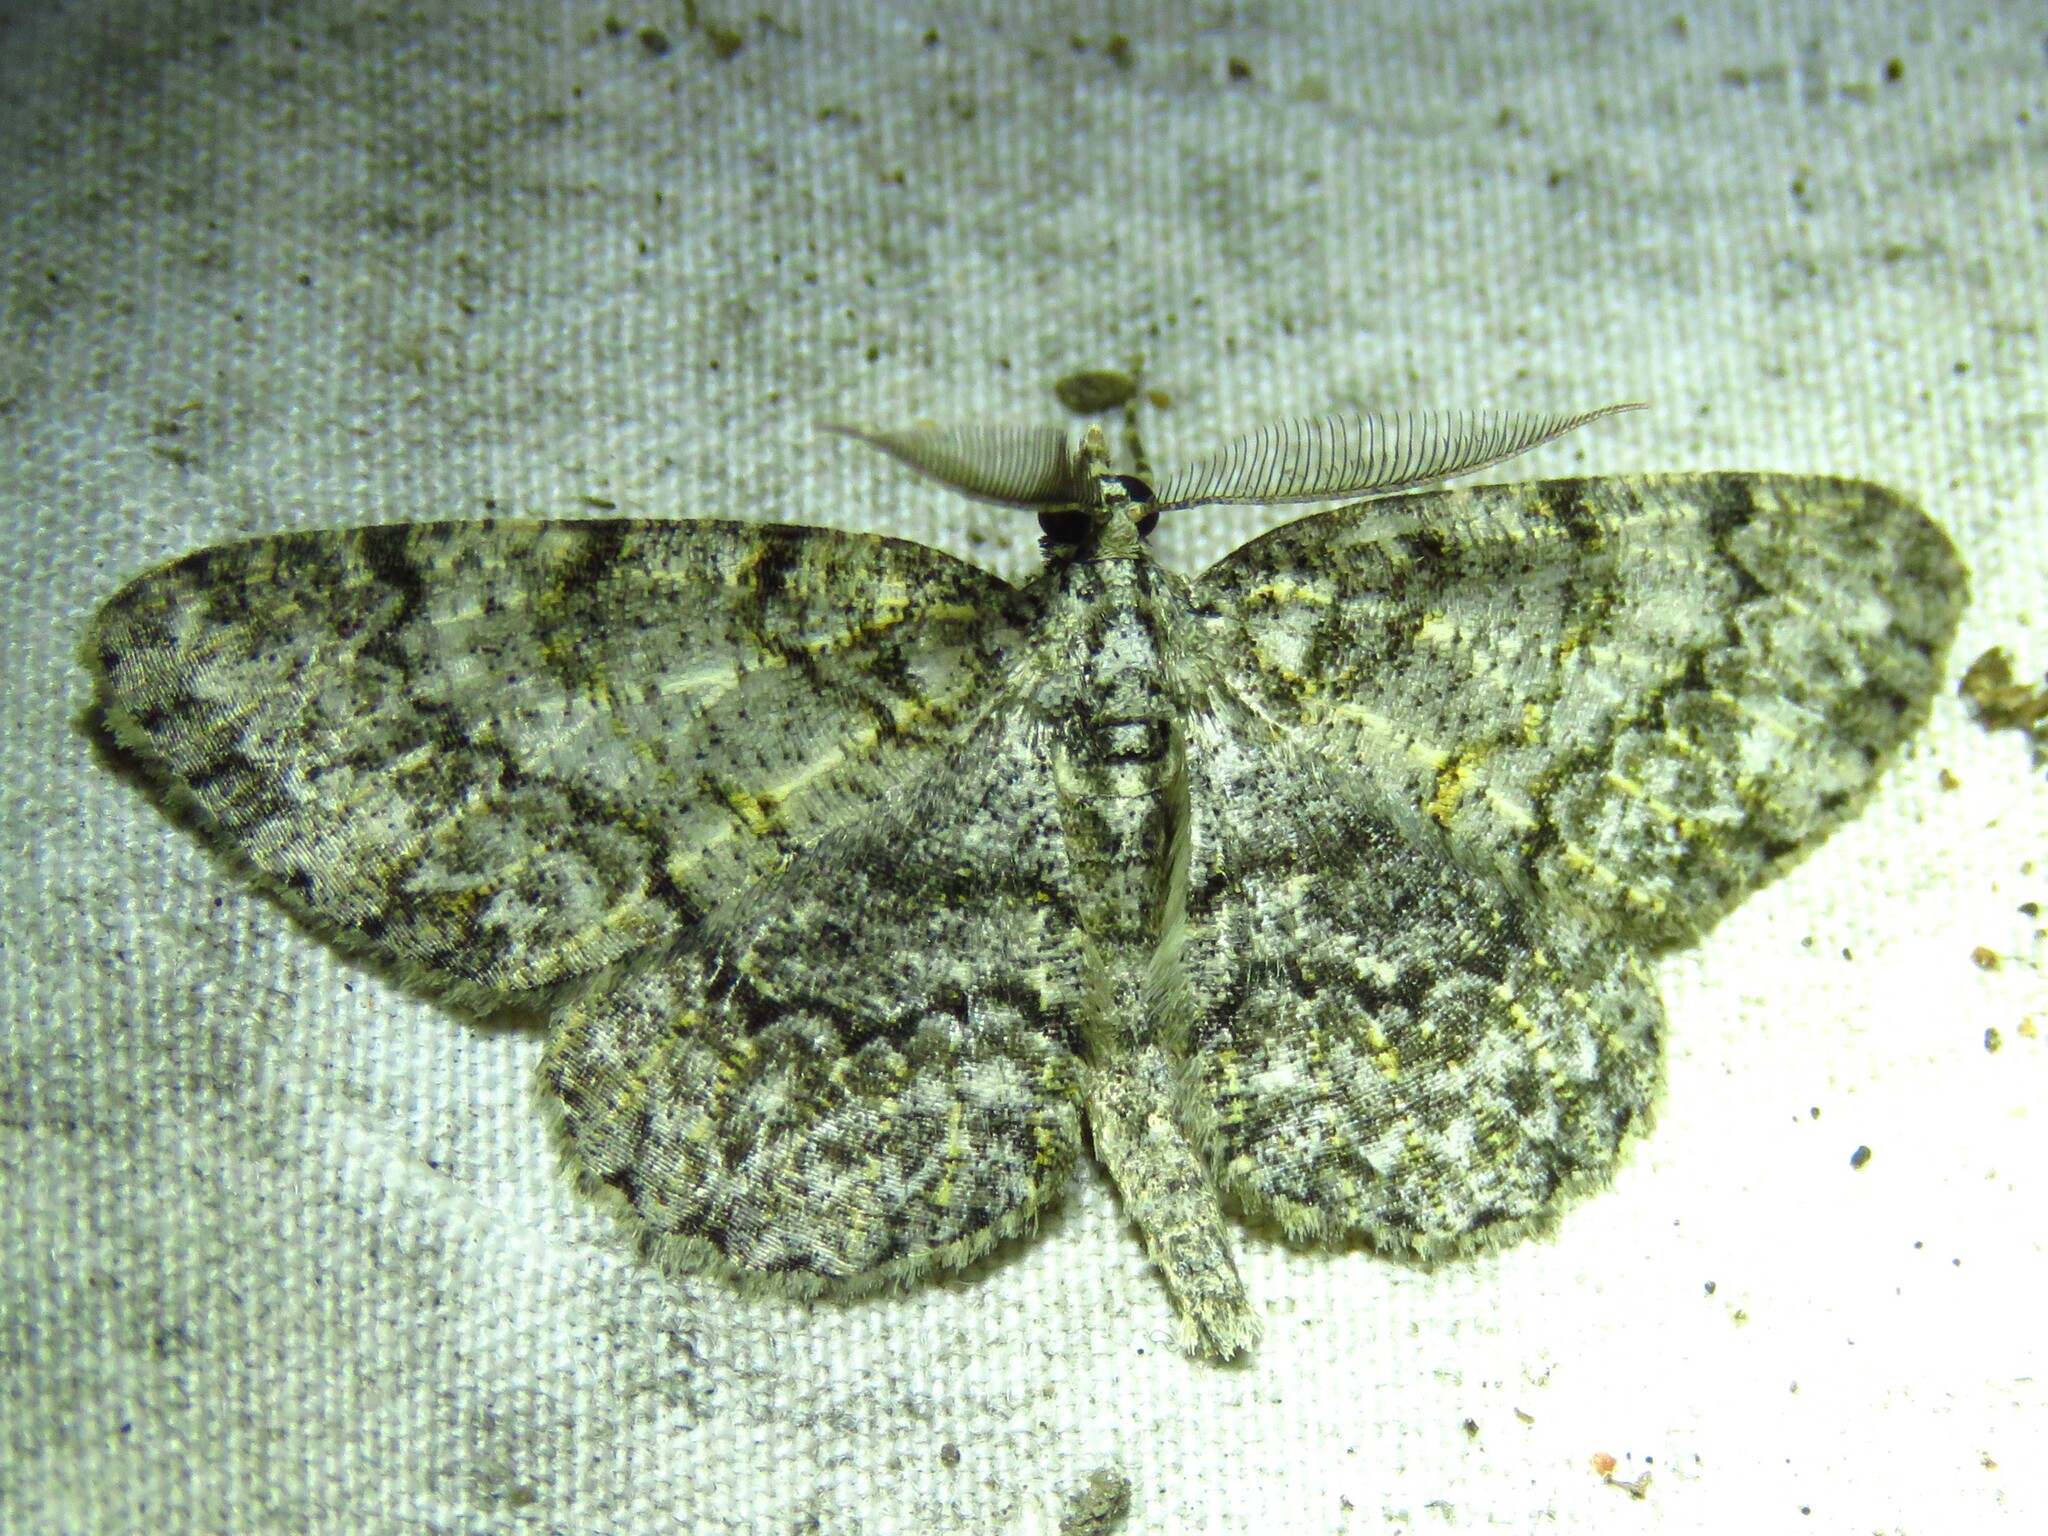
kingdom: Animalia
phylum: Arthropoda
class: Insecta
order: Lepidoptera
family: Geometridae
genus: Protoboarmia
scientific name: Protoboarmia porcelaria
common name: Porcelain gray
